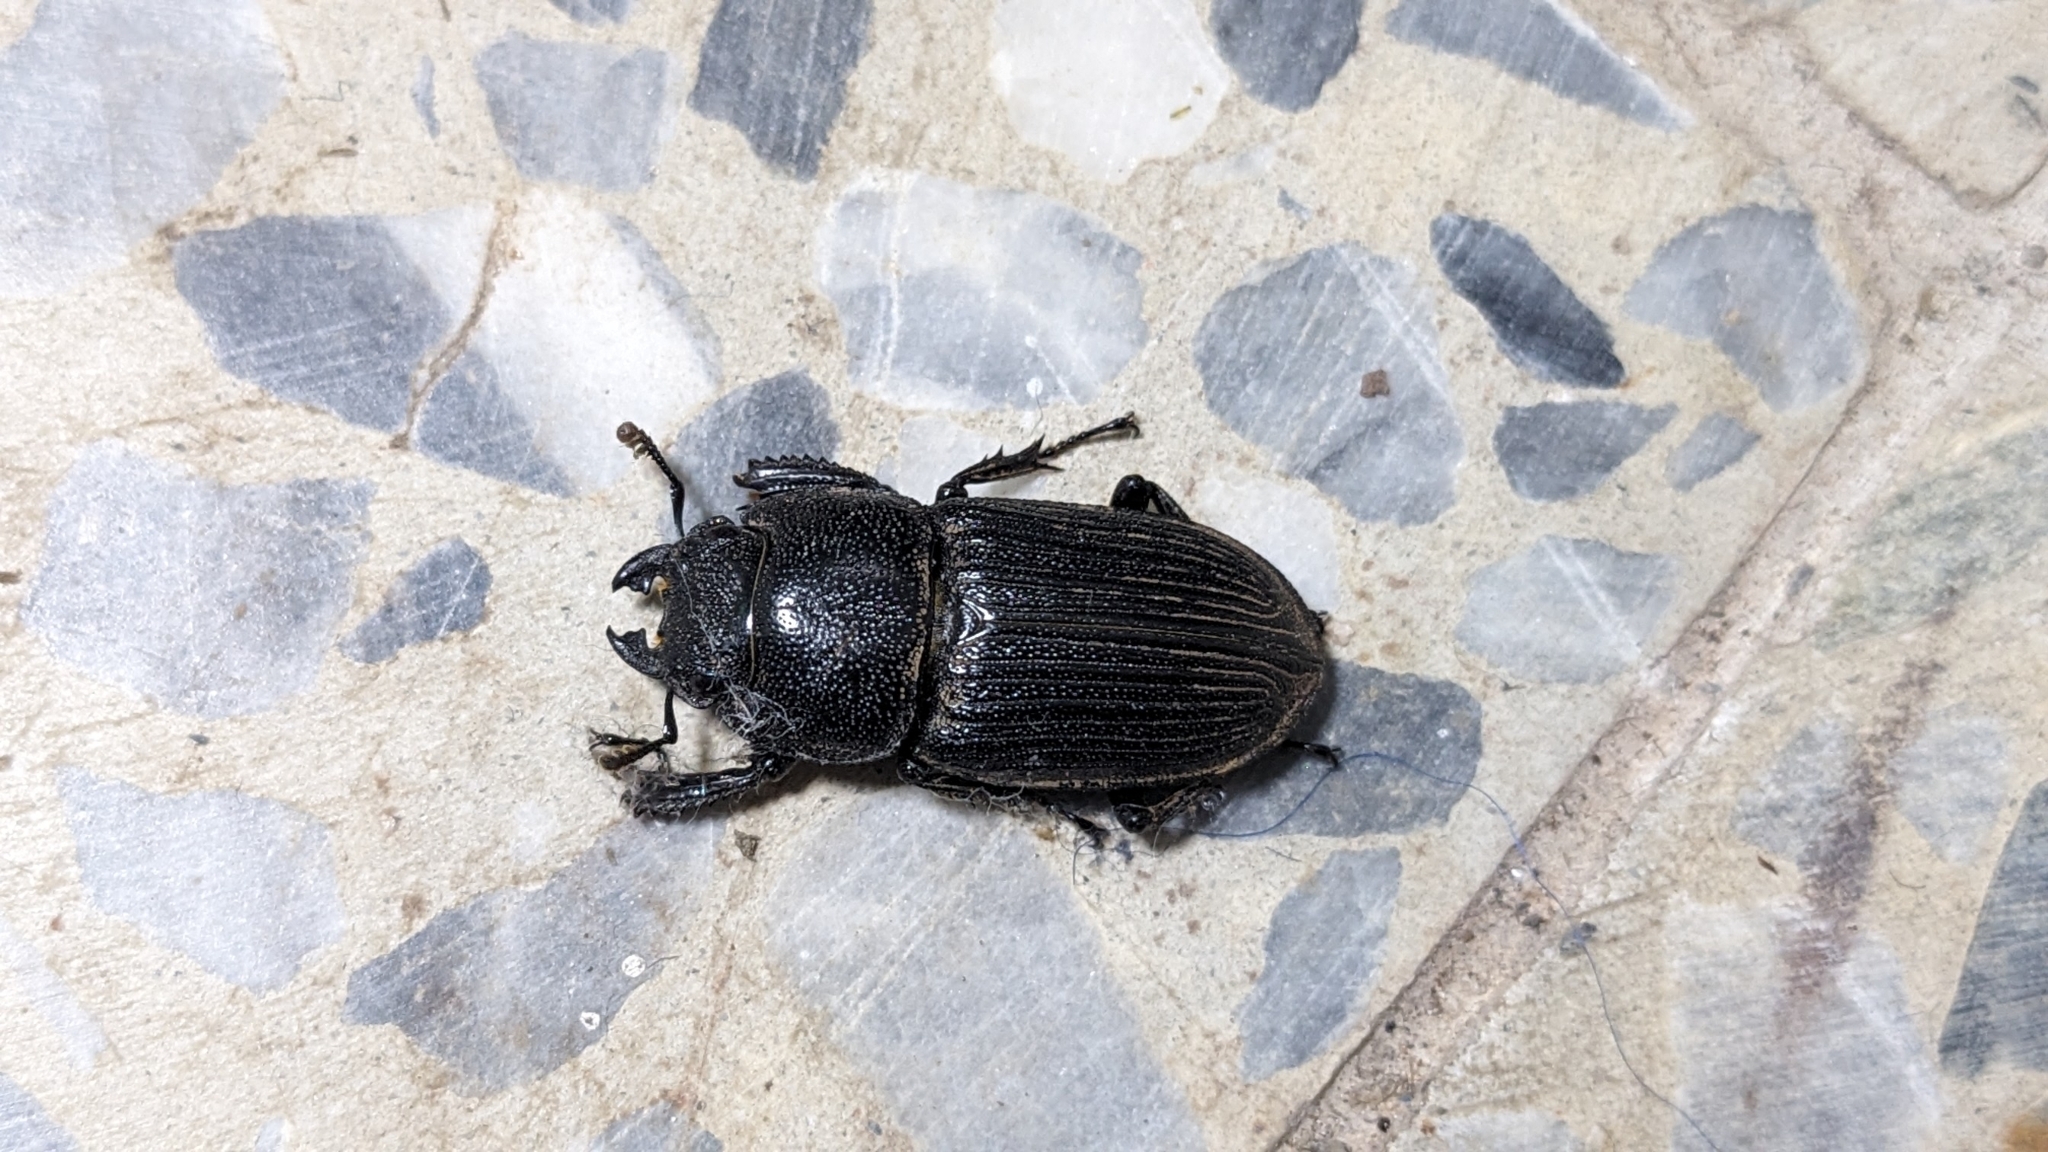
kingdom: Animalia
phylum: Arthropoda
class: Insecta
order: Coleoptera
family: Lucanidae
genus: Aegus
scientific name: Aegus laevicollis
